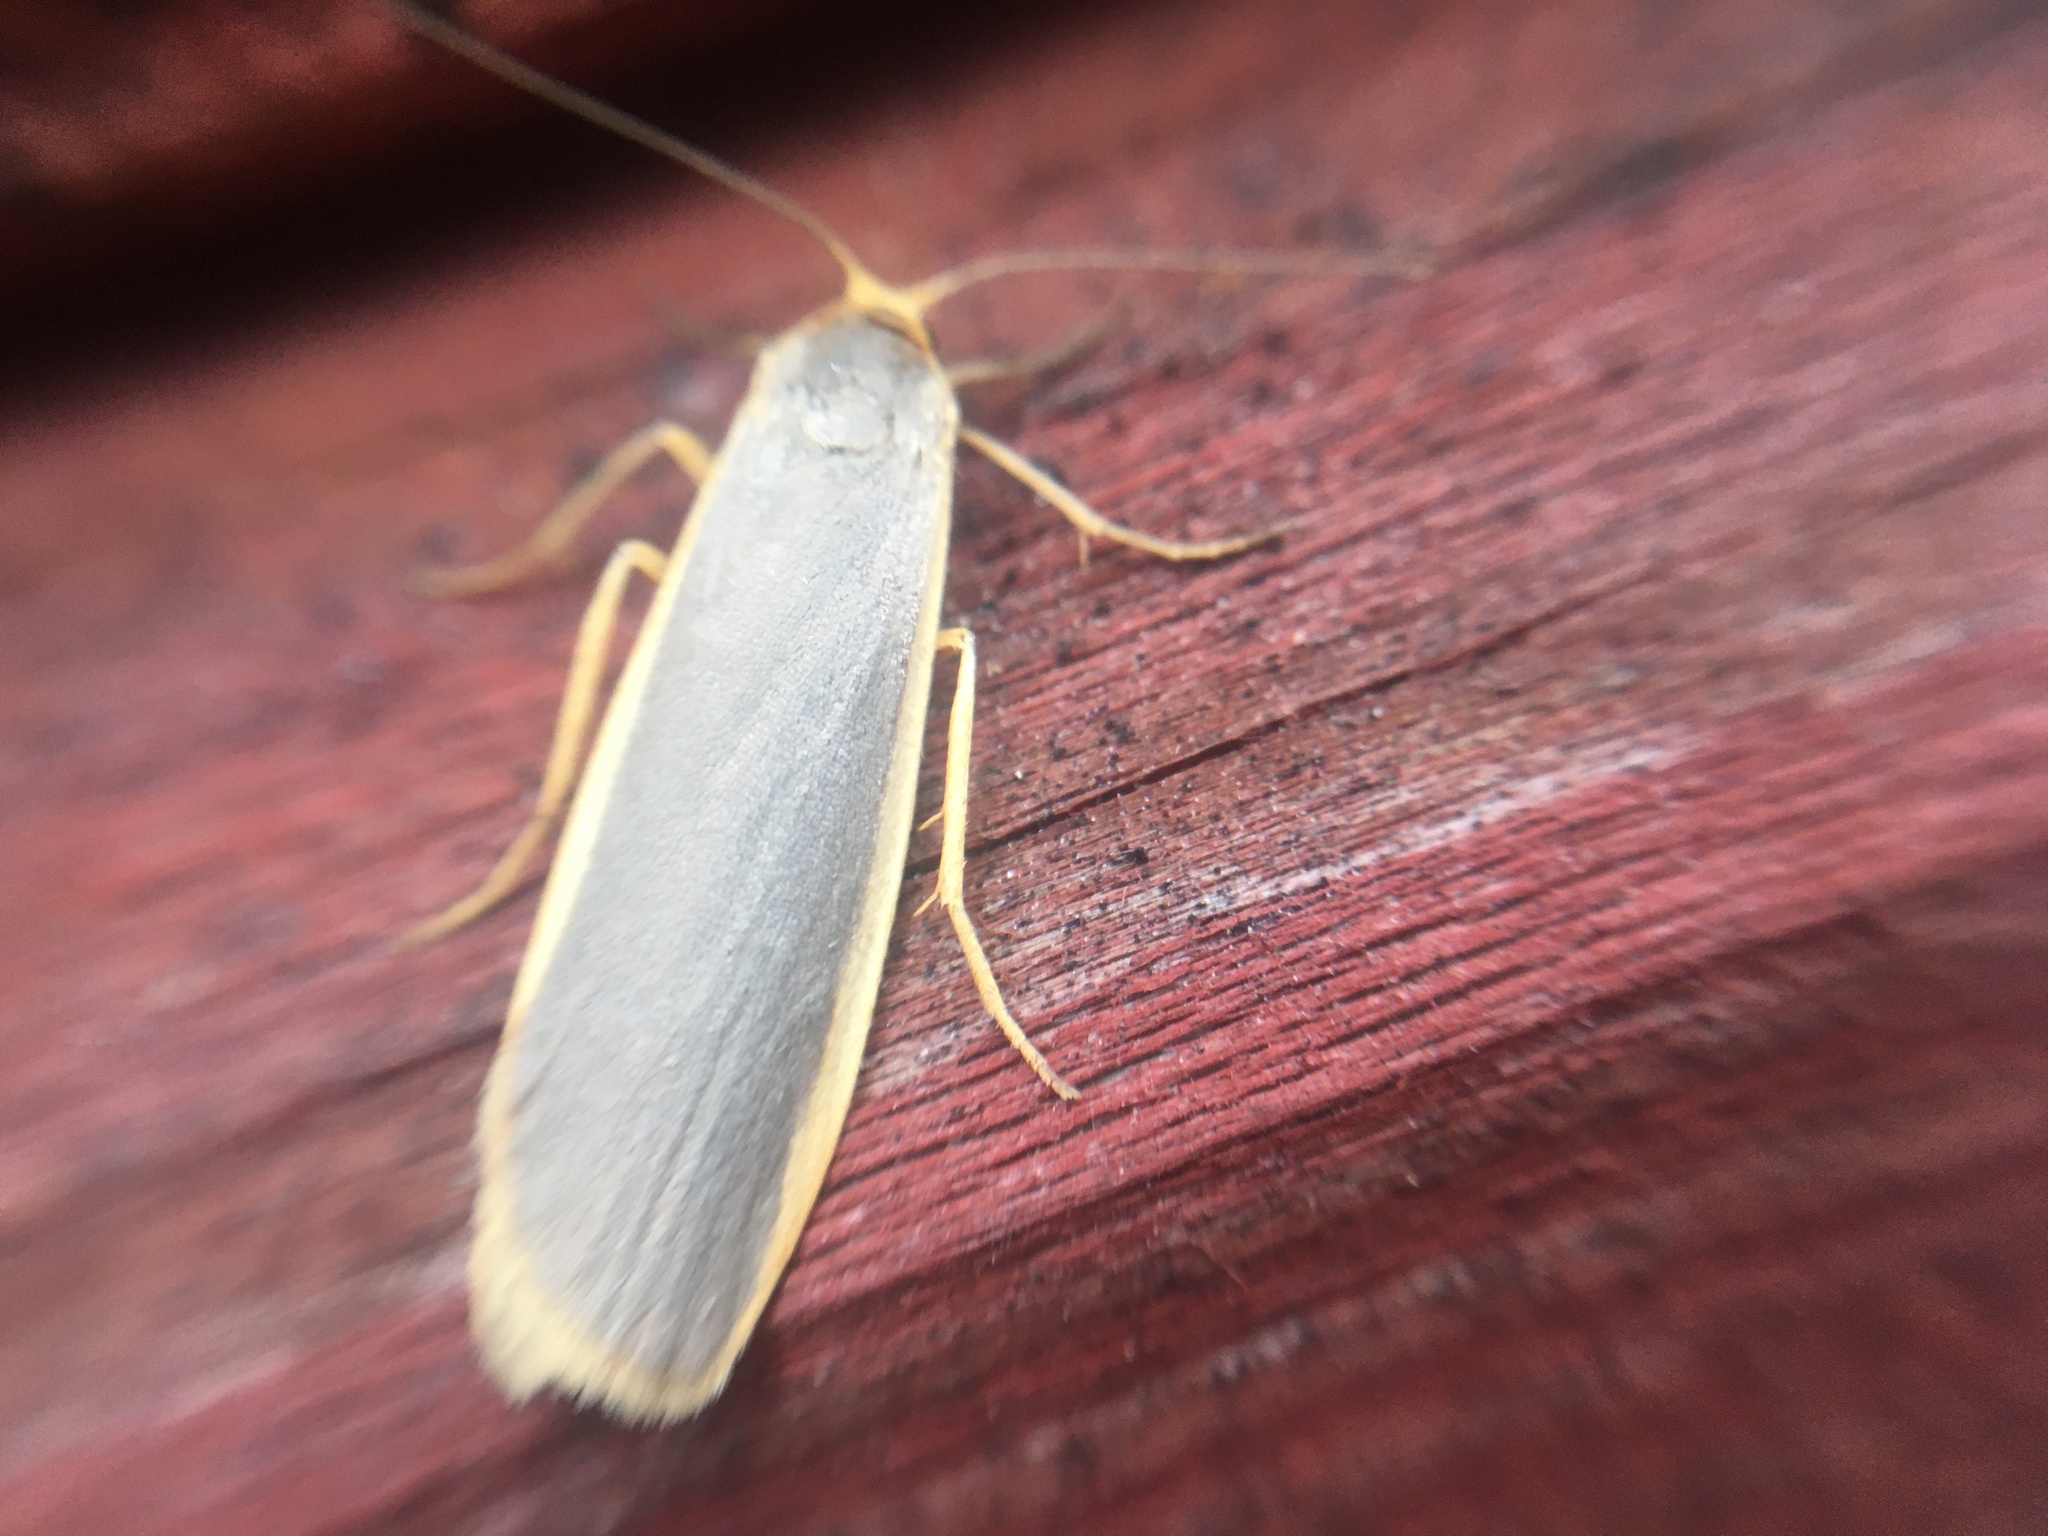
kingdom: Animalia
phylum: Arthropoda
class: Insecta
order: Lepidoptera
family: Erebidae
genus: Nyea
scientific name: Nyea lurideola
